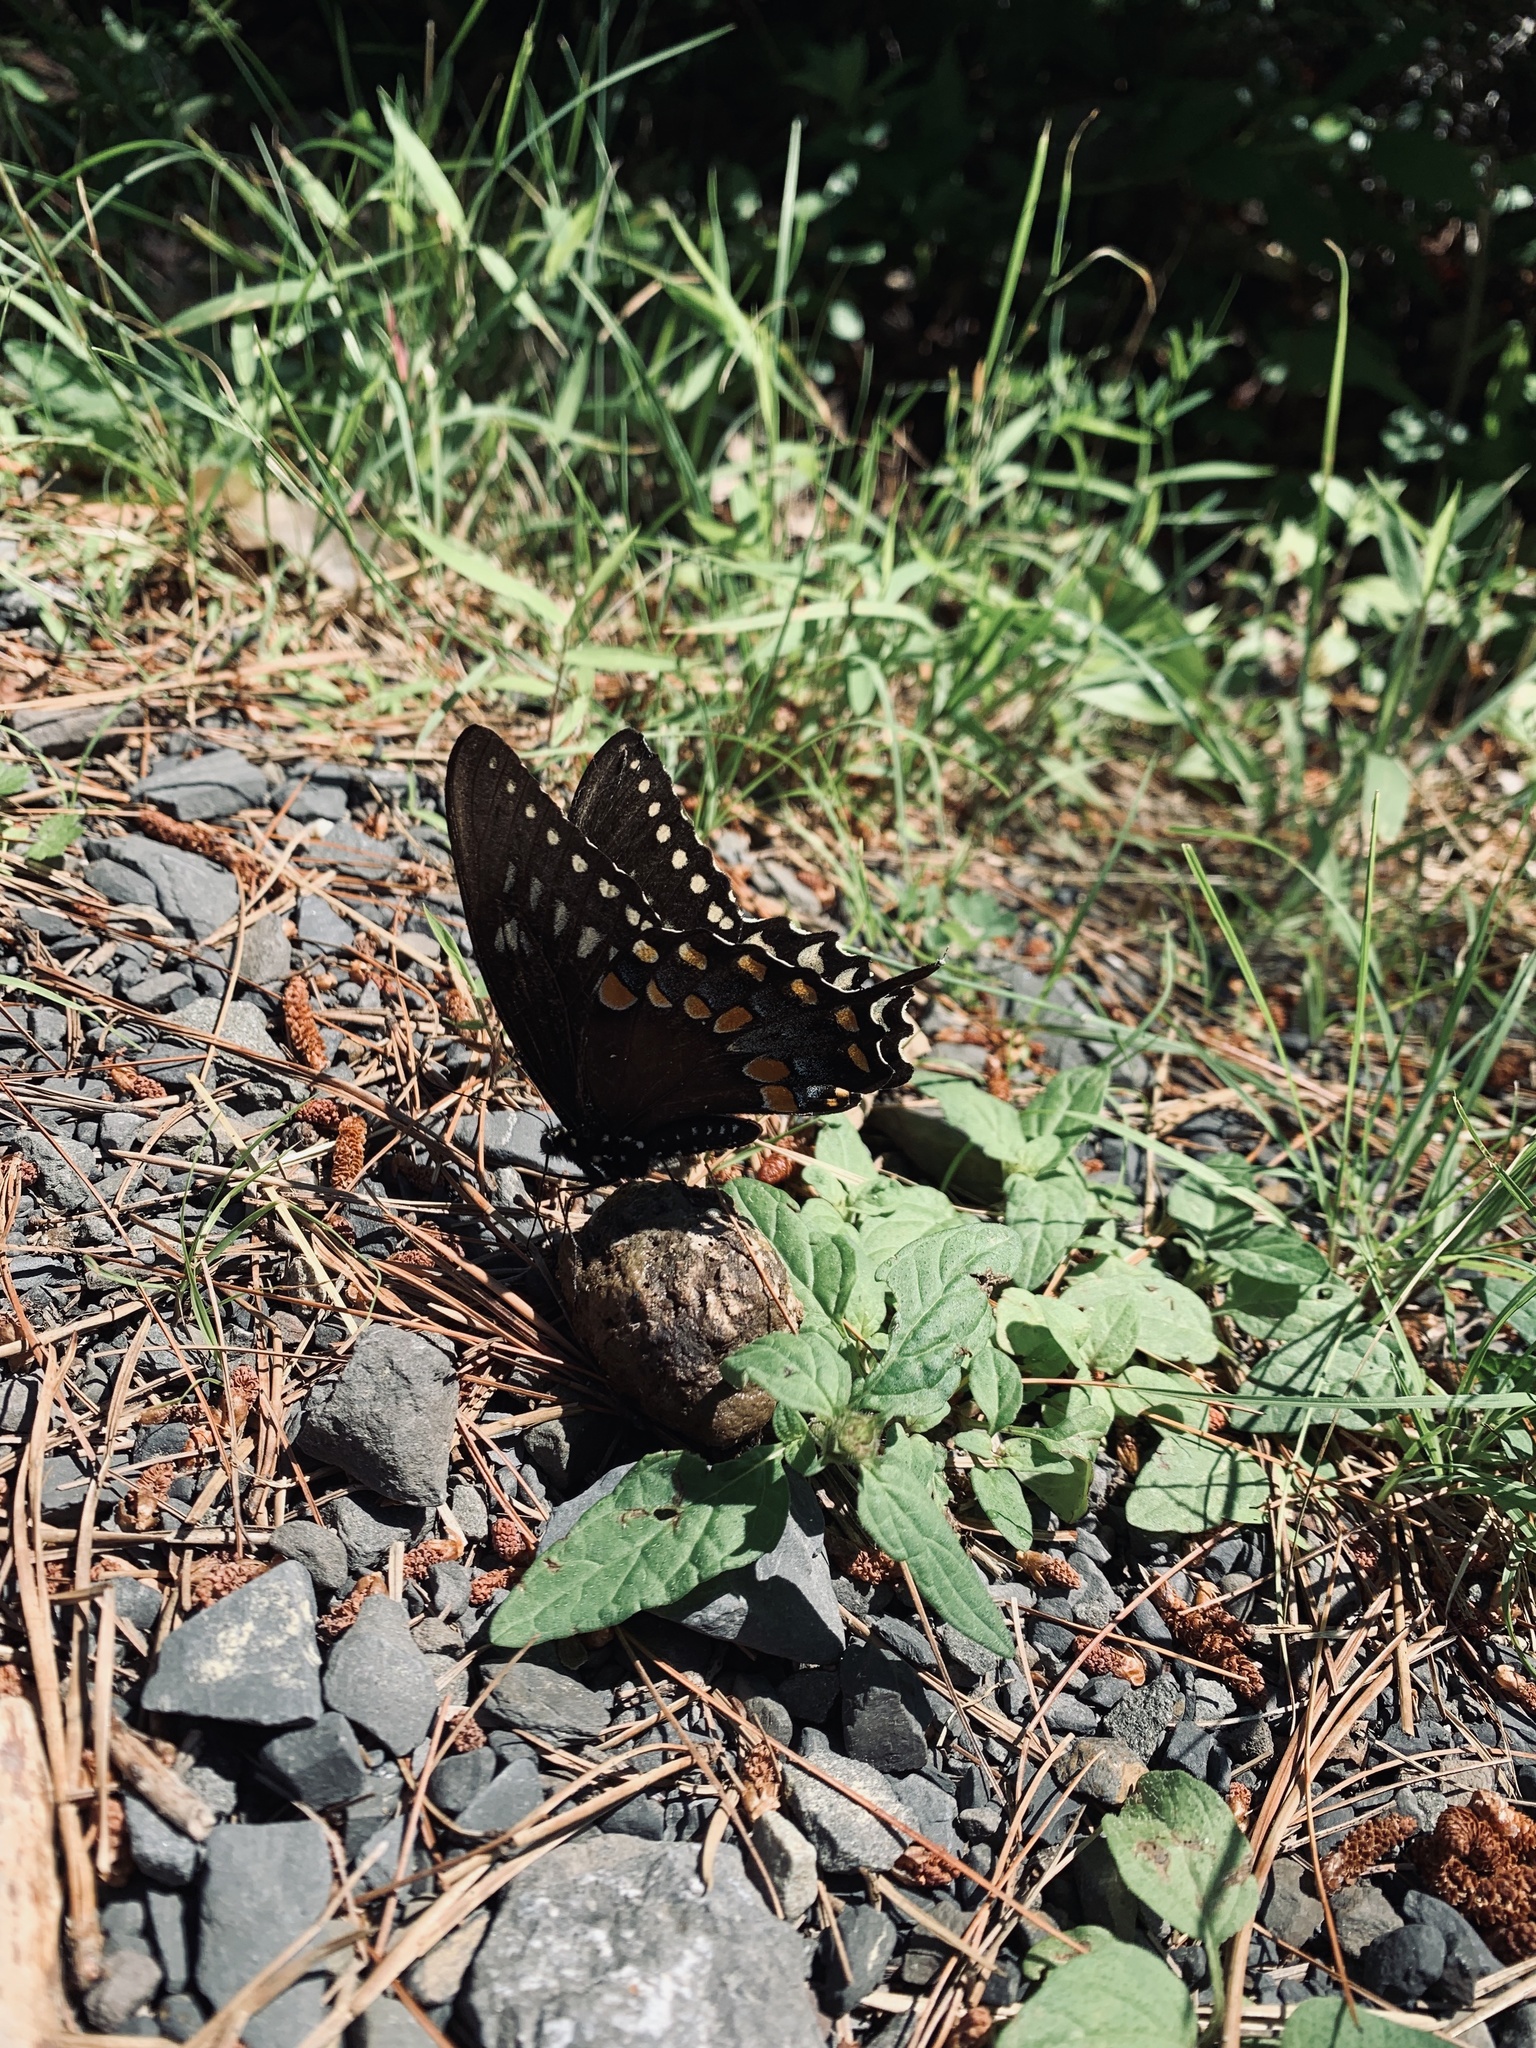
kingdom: Animalia
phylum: Arthropoda
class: Insecta
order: Lepidoptera
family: Papilionidae
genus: Papilio
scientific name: Papilio troilus
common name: Spicebush swallowtail
